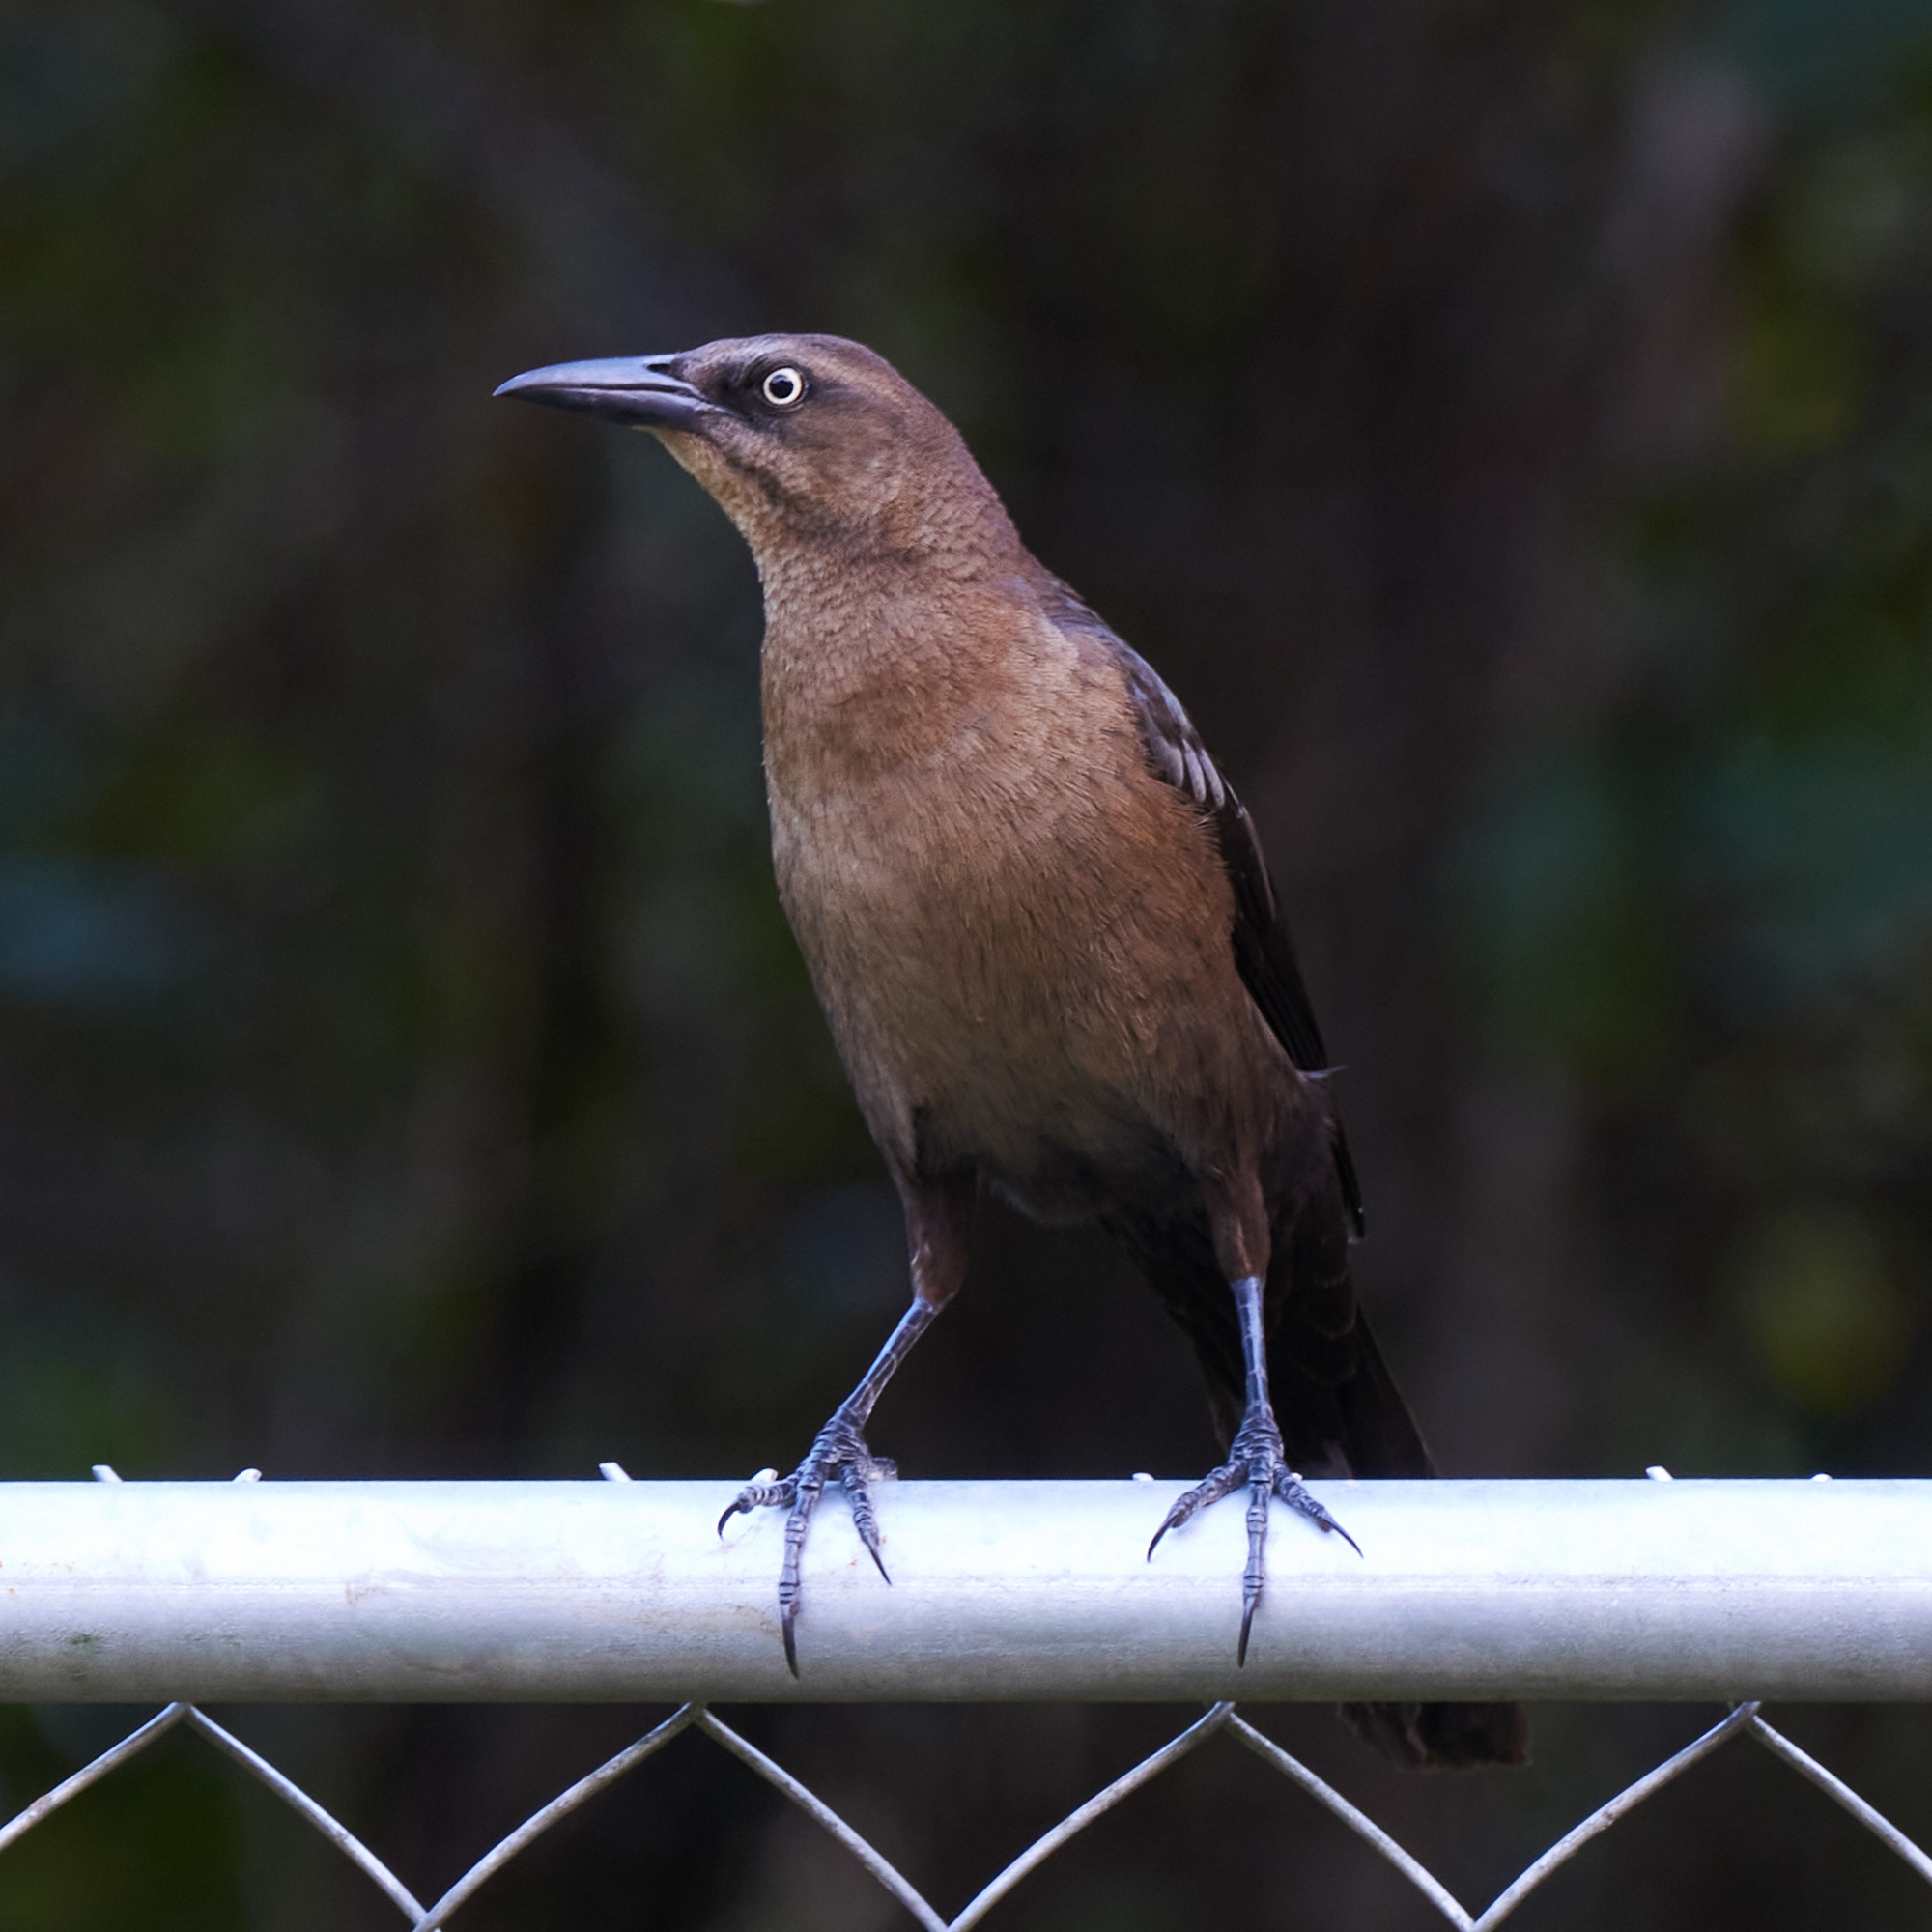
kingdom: Animalia
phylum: Chordata
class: Aves
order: Passeriformes
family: Icteridae
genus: Quiscalus
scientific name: Quiscalus mexicanus
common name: Great-tailed grackle
